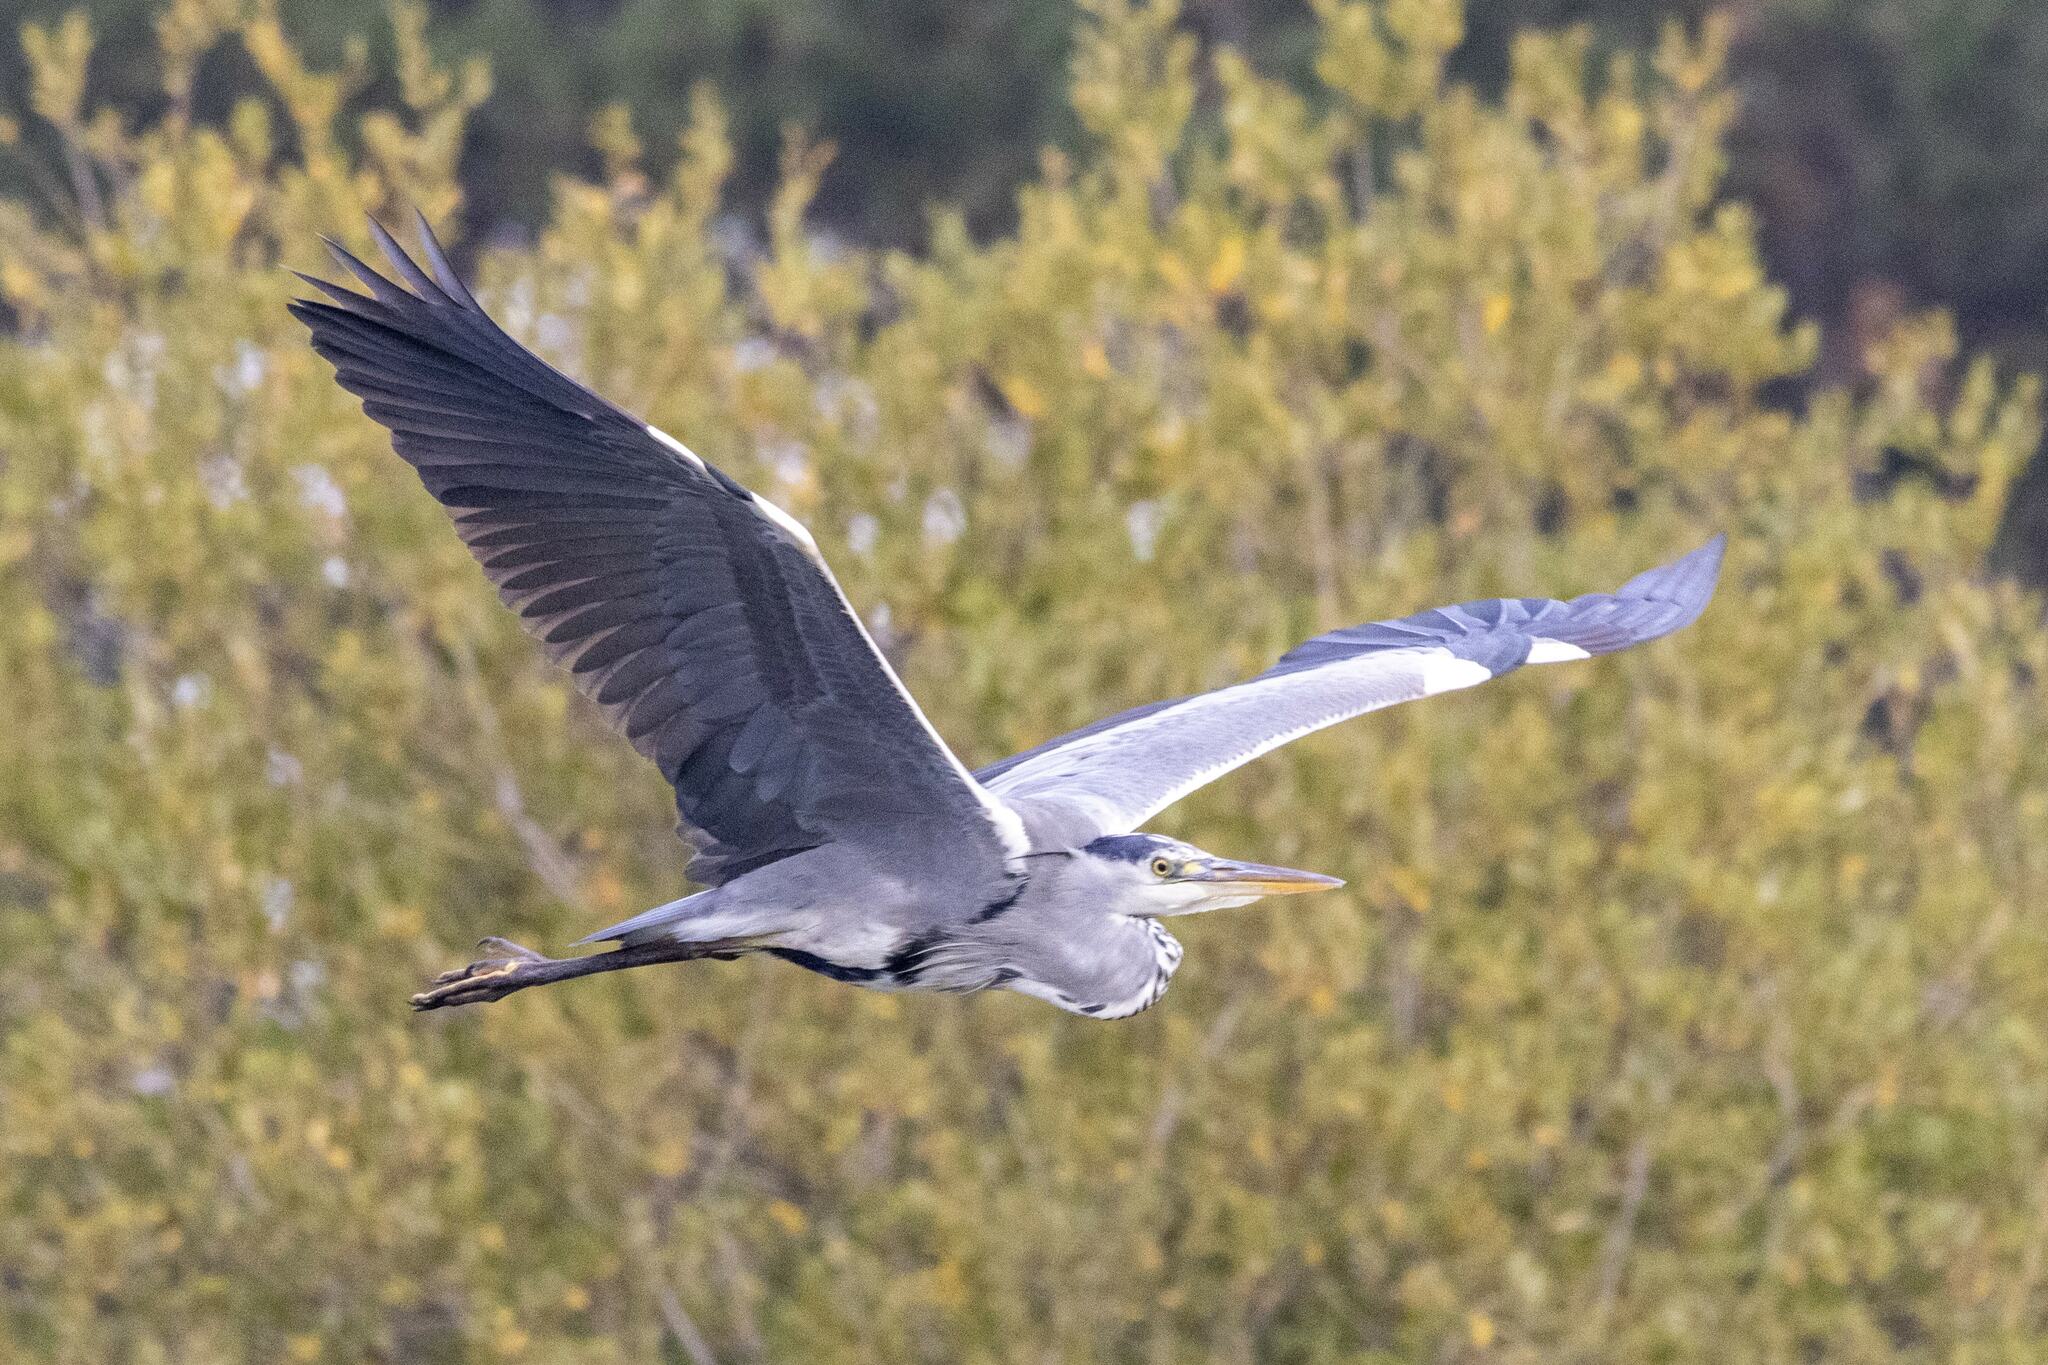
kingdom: Animalia
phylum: Chordata
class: Aves
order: Pelecaniformes
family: Ardeidae
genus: Ardea
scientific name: Ardea cinerea
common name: Grey heron
